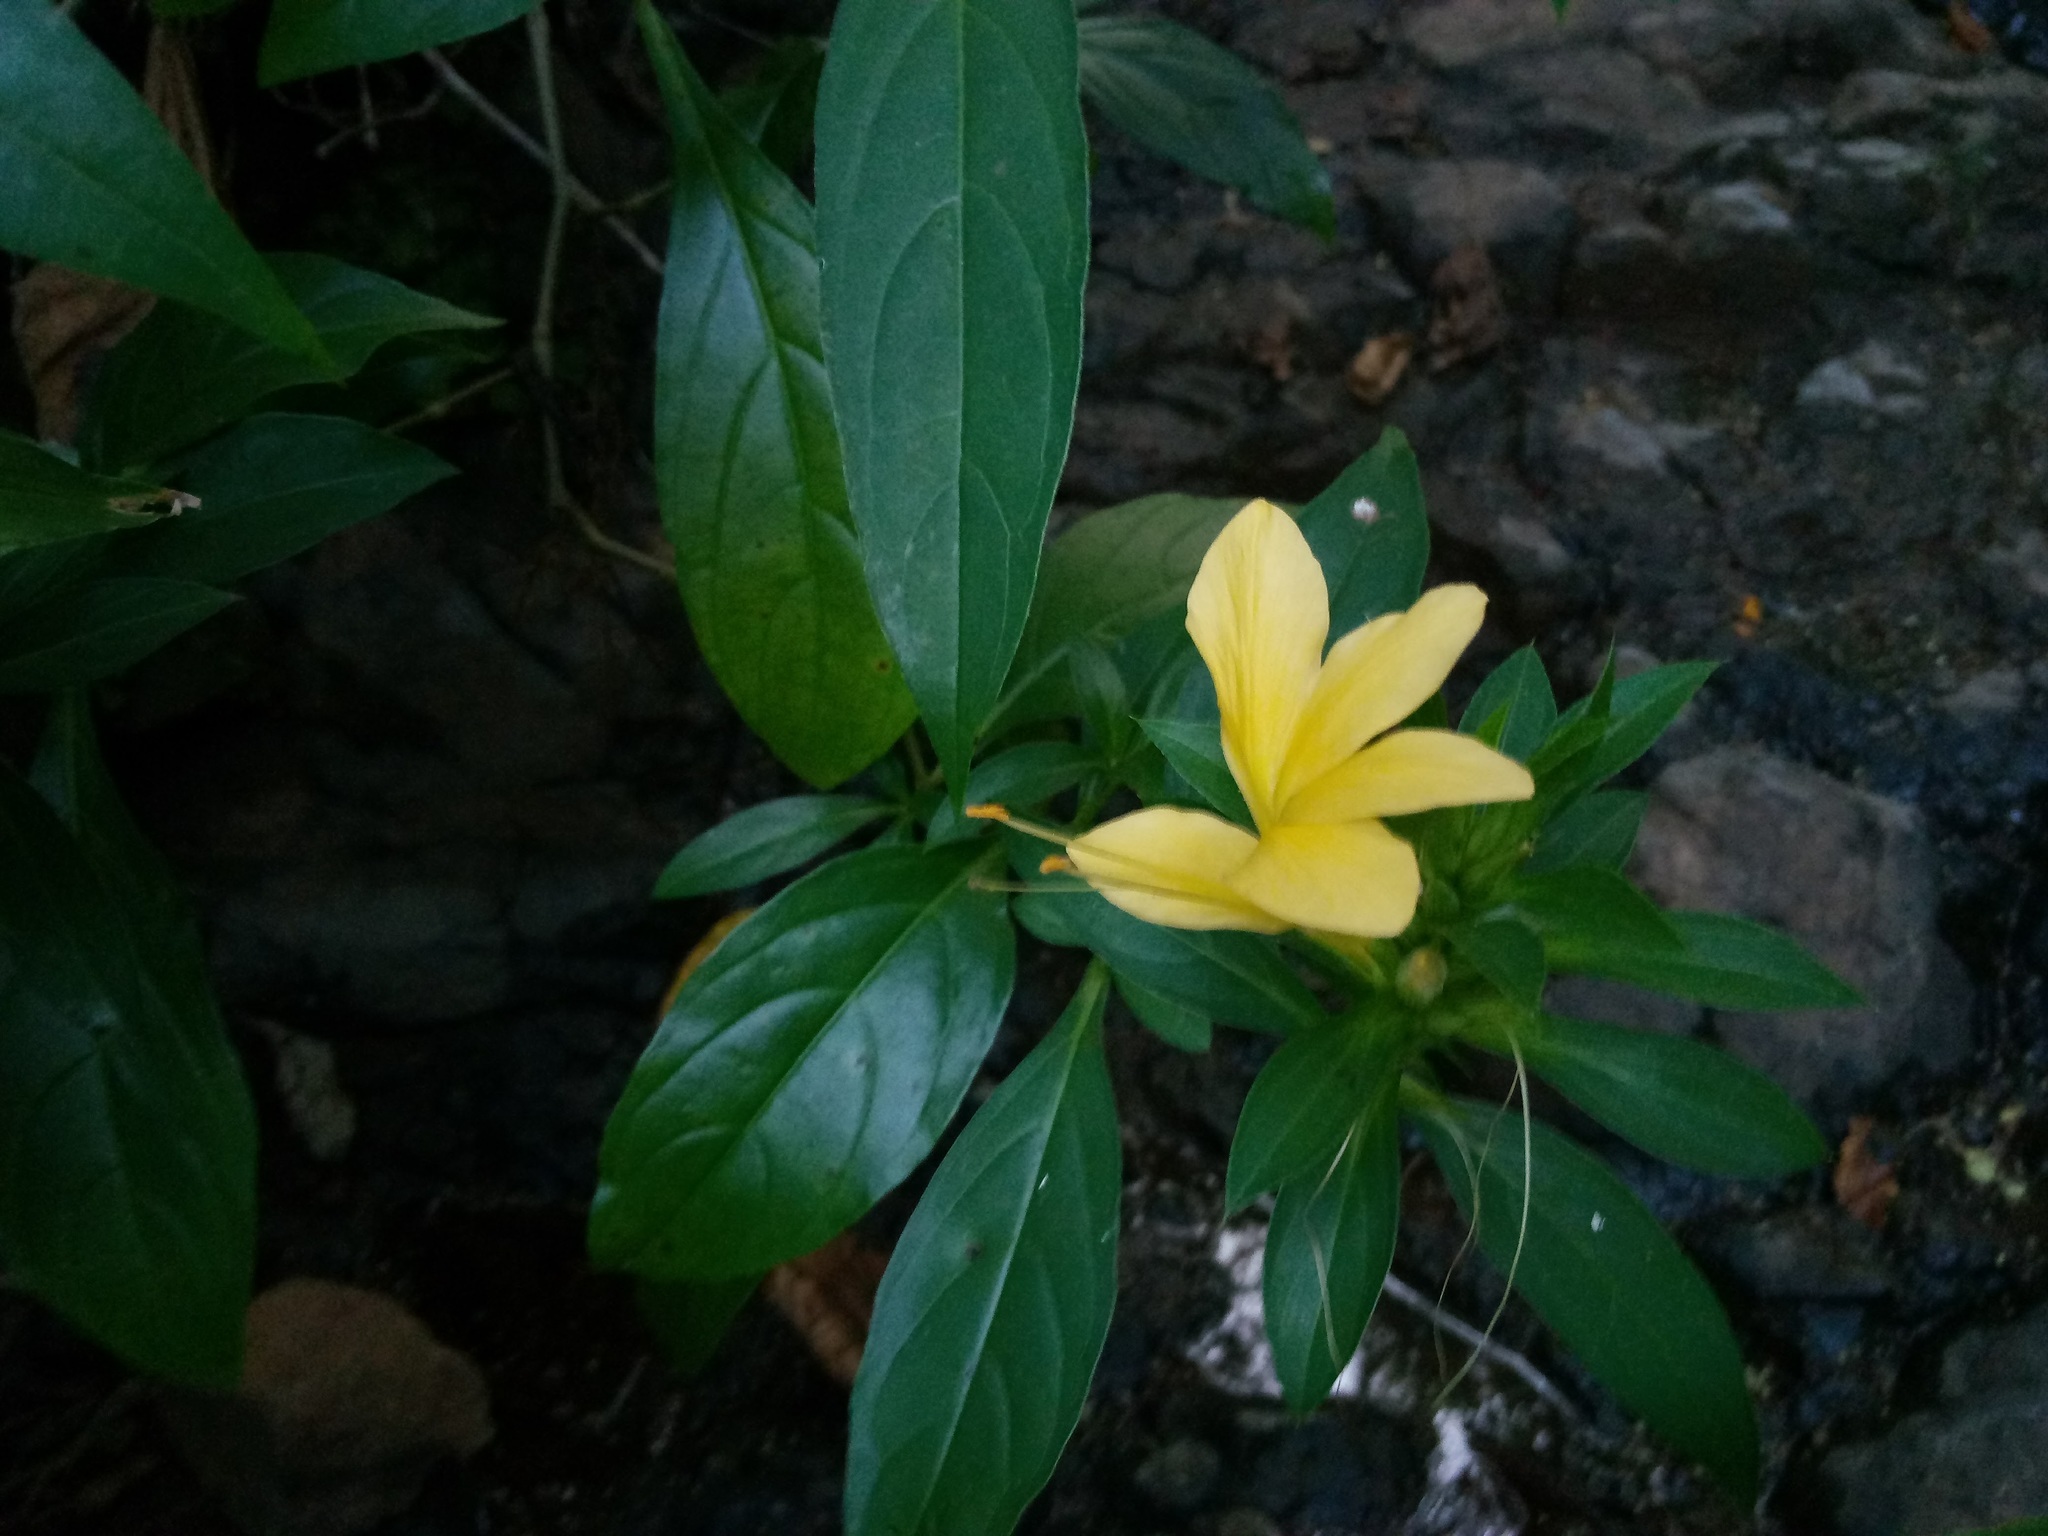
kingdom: Plantae
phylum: Tracheophyta
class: Magnoliopsida
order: Lamiales
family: Acanthaceae
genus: Barleria
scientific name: Barleria prionitis
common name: Barleria
